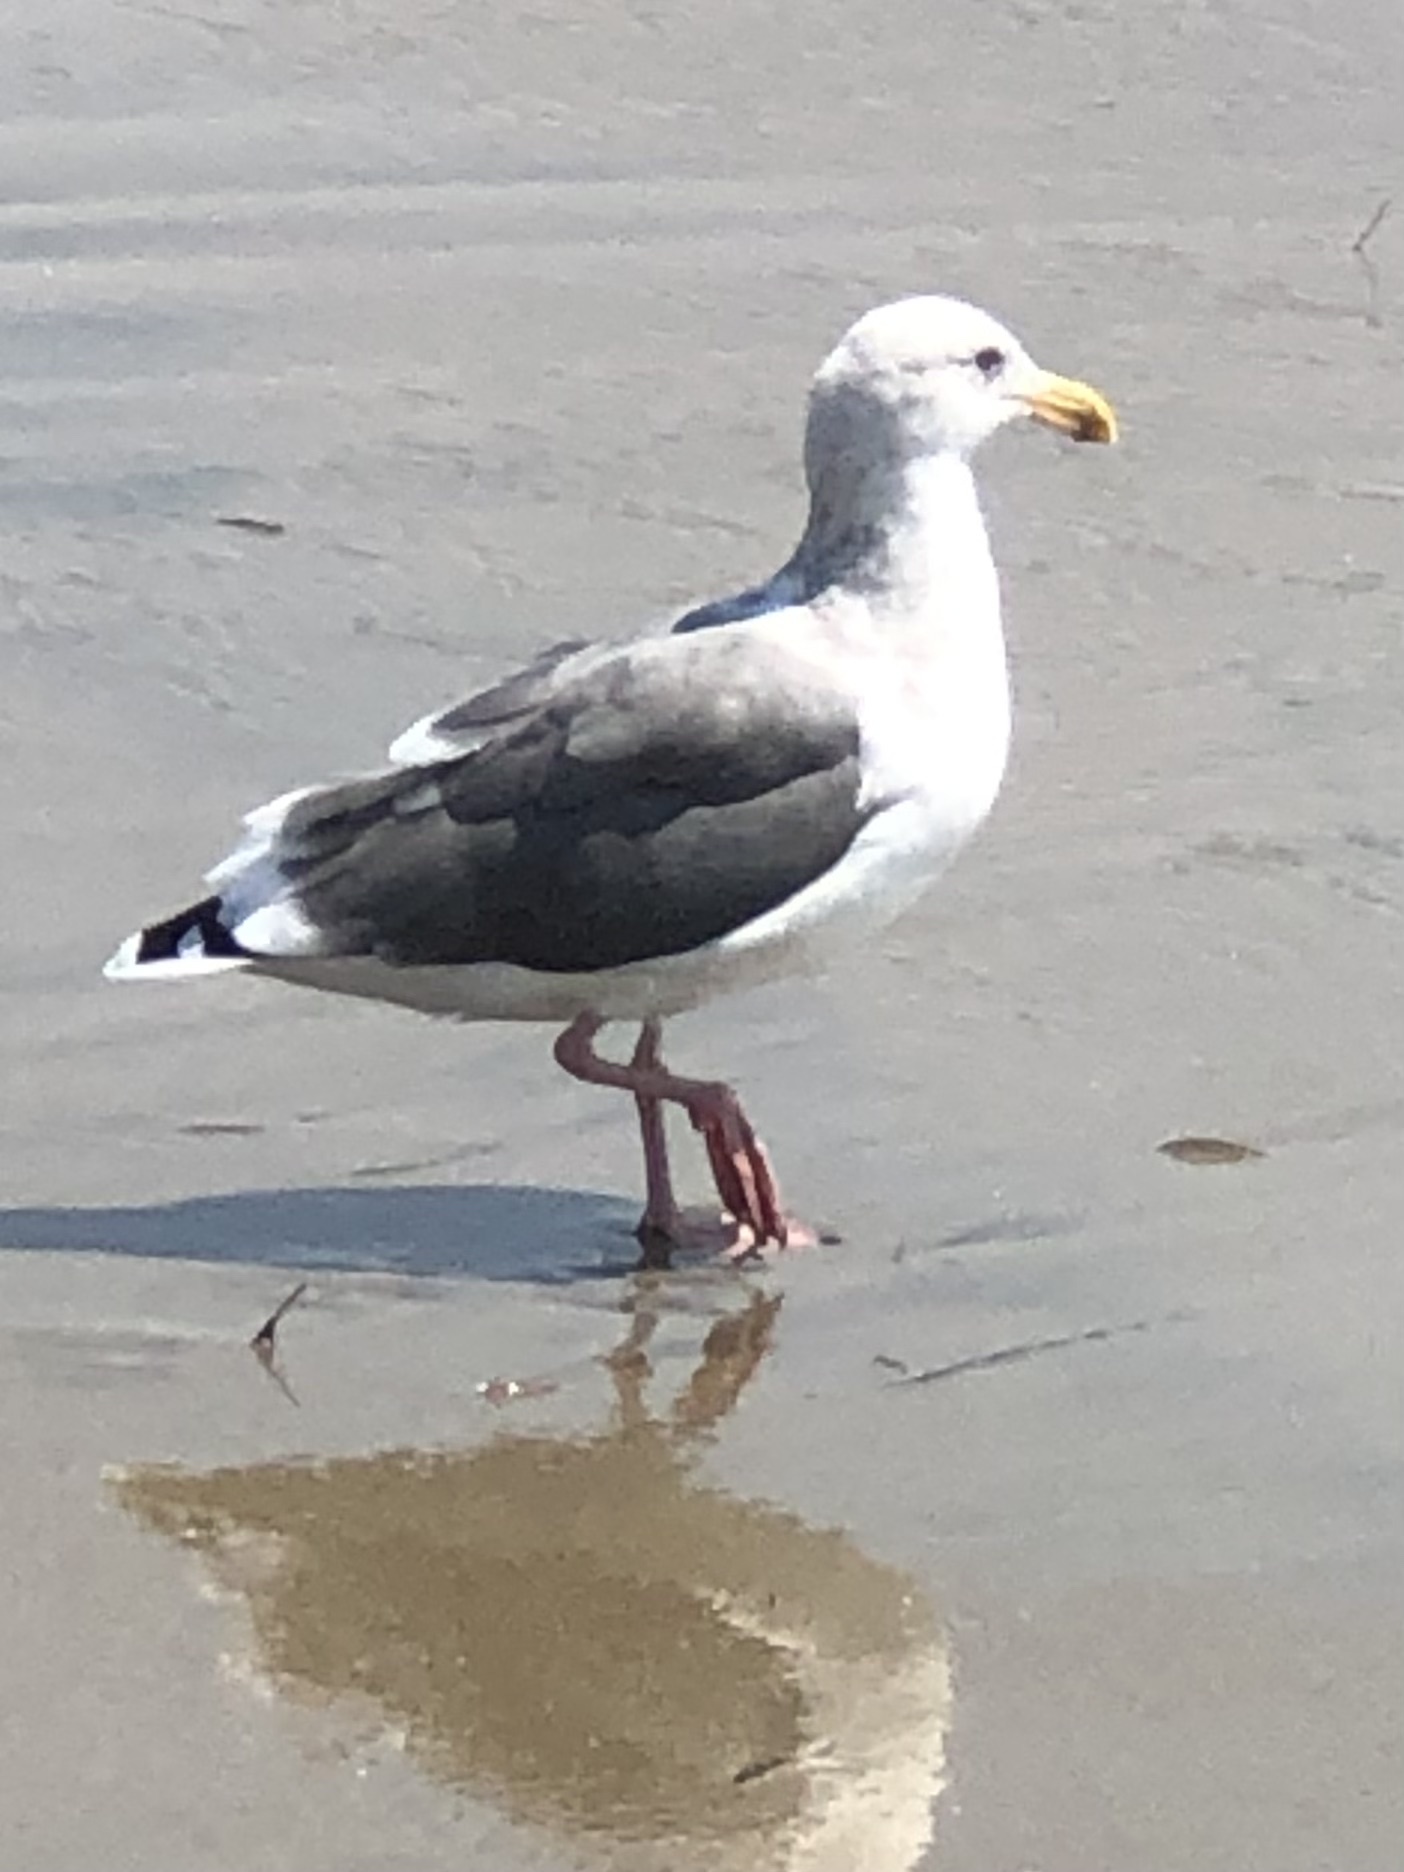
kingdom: Animalia
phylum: Chordata
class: Aves
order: Charadriiformes
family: Laridae
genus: Larus
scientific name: Larus occidentalis
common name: Western gull
